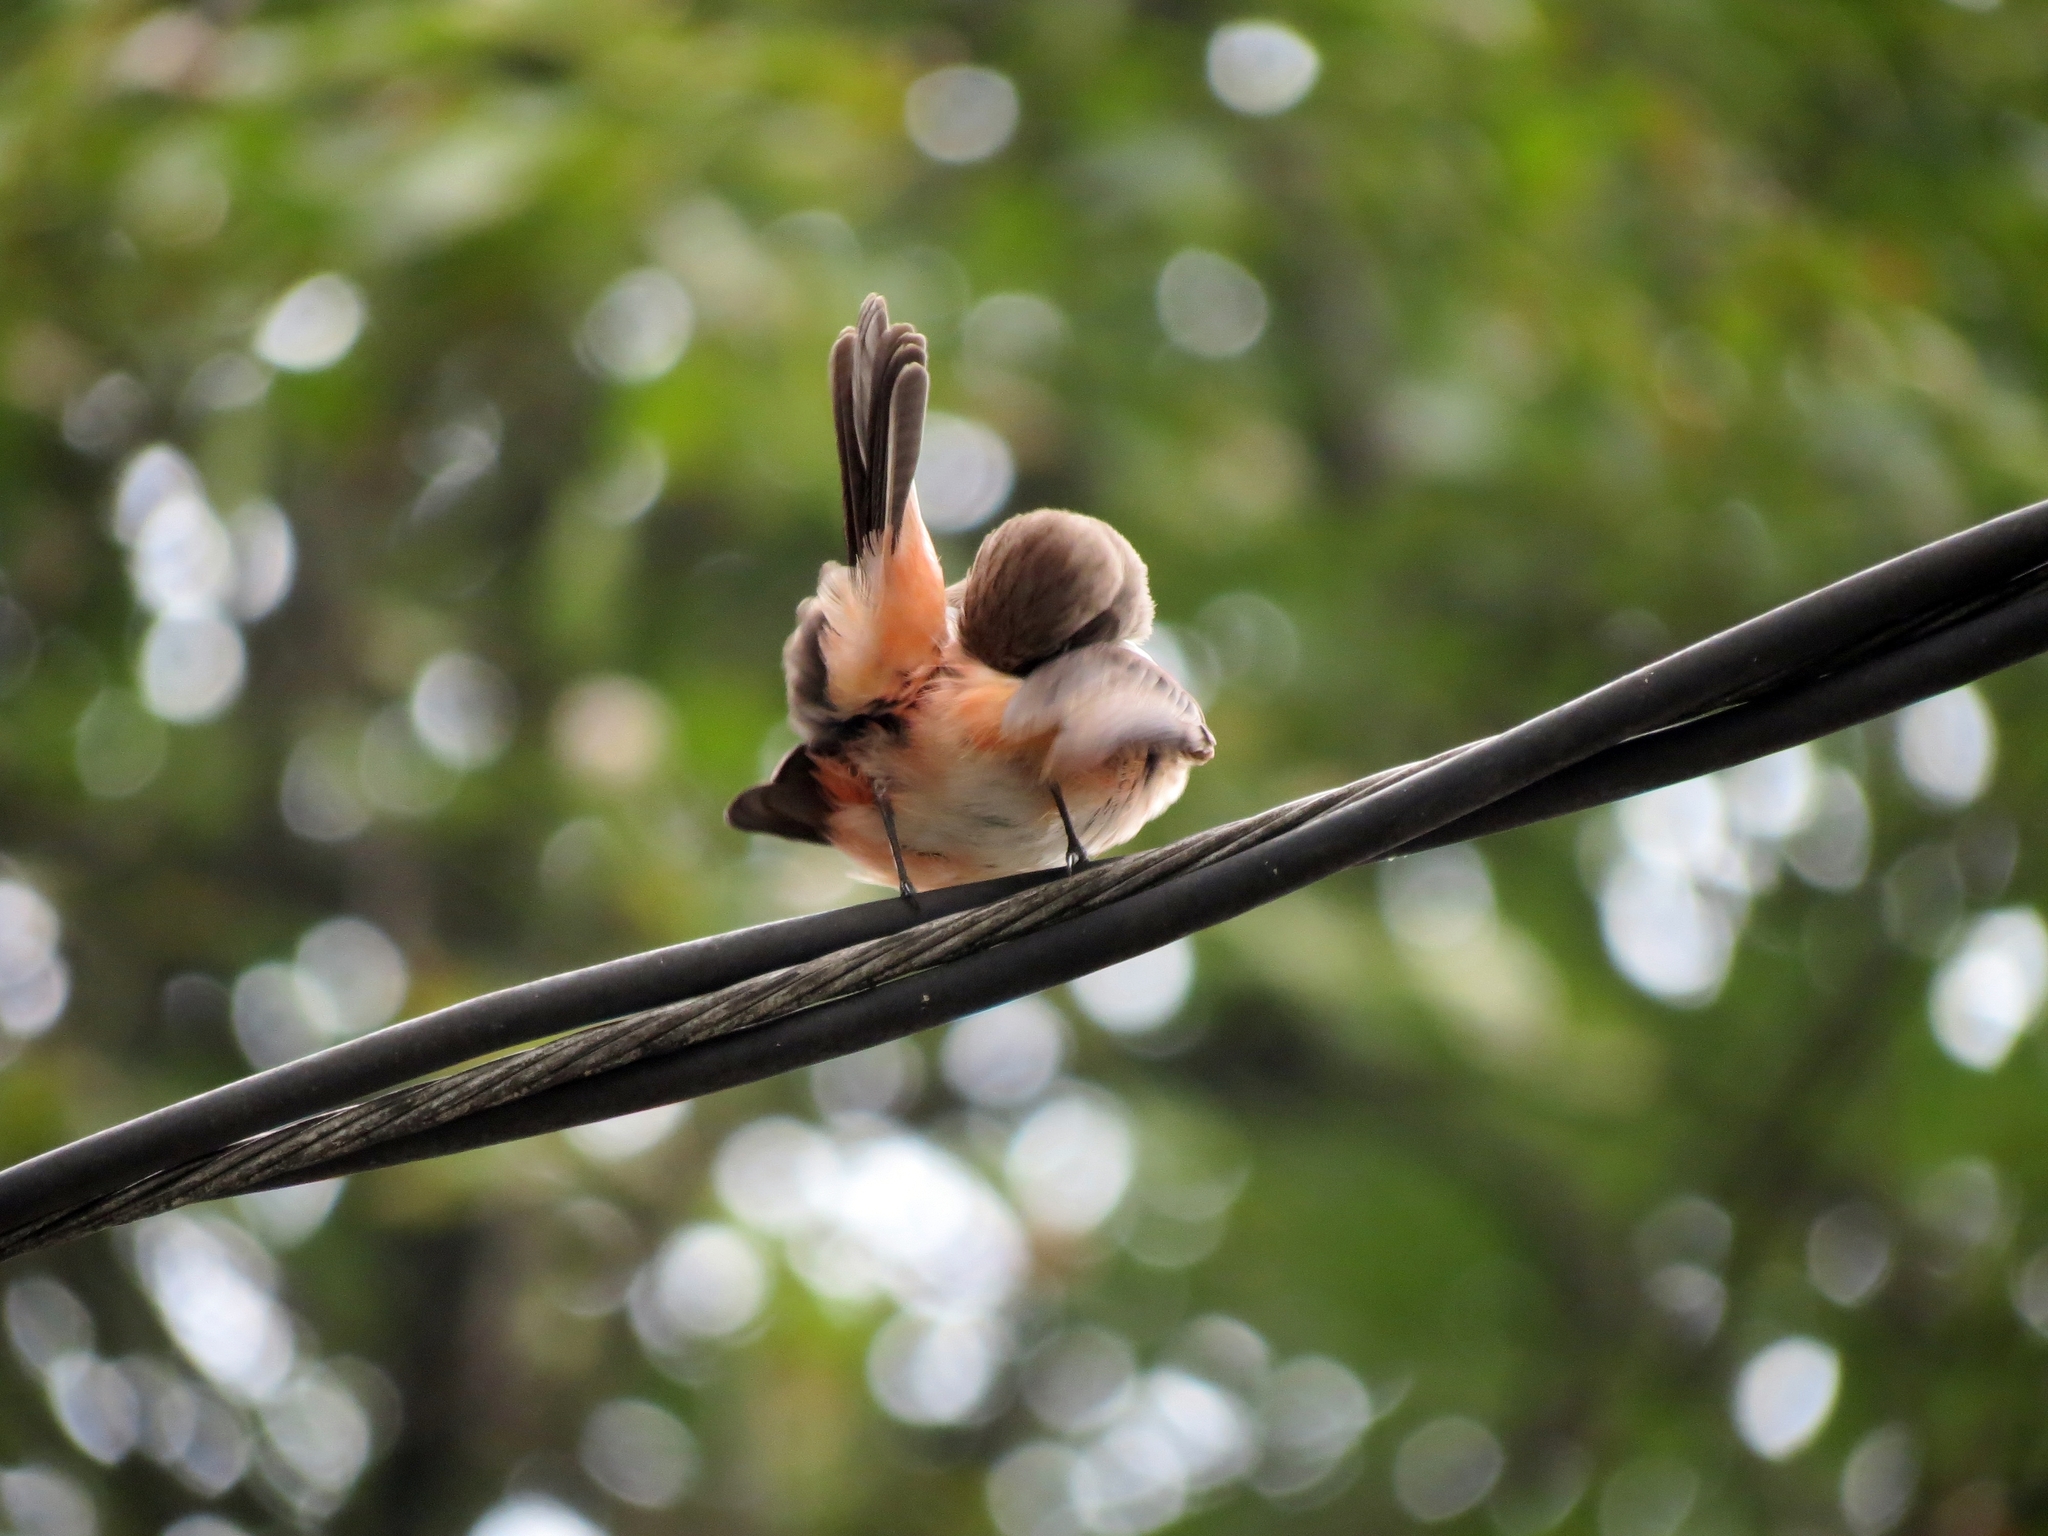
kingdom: Animalia
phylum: Chordata
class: Aves
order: Passeriformes
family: Tyrannidae
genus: Pyrocephalus
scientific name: Pyrocephalus rubinus
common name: Vermilion flycatcher
